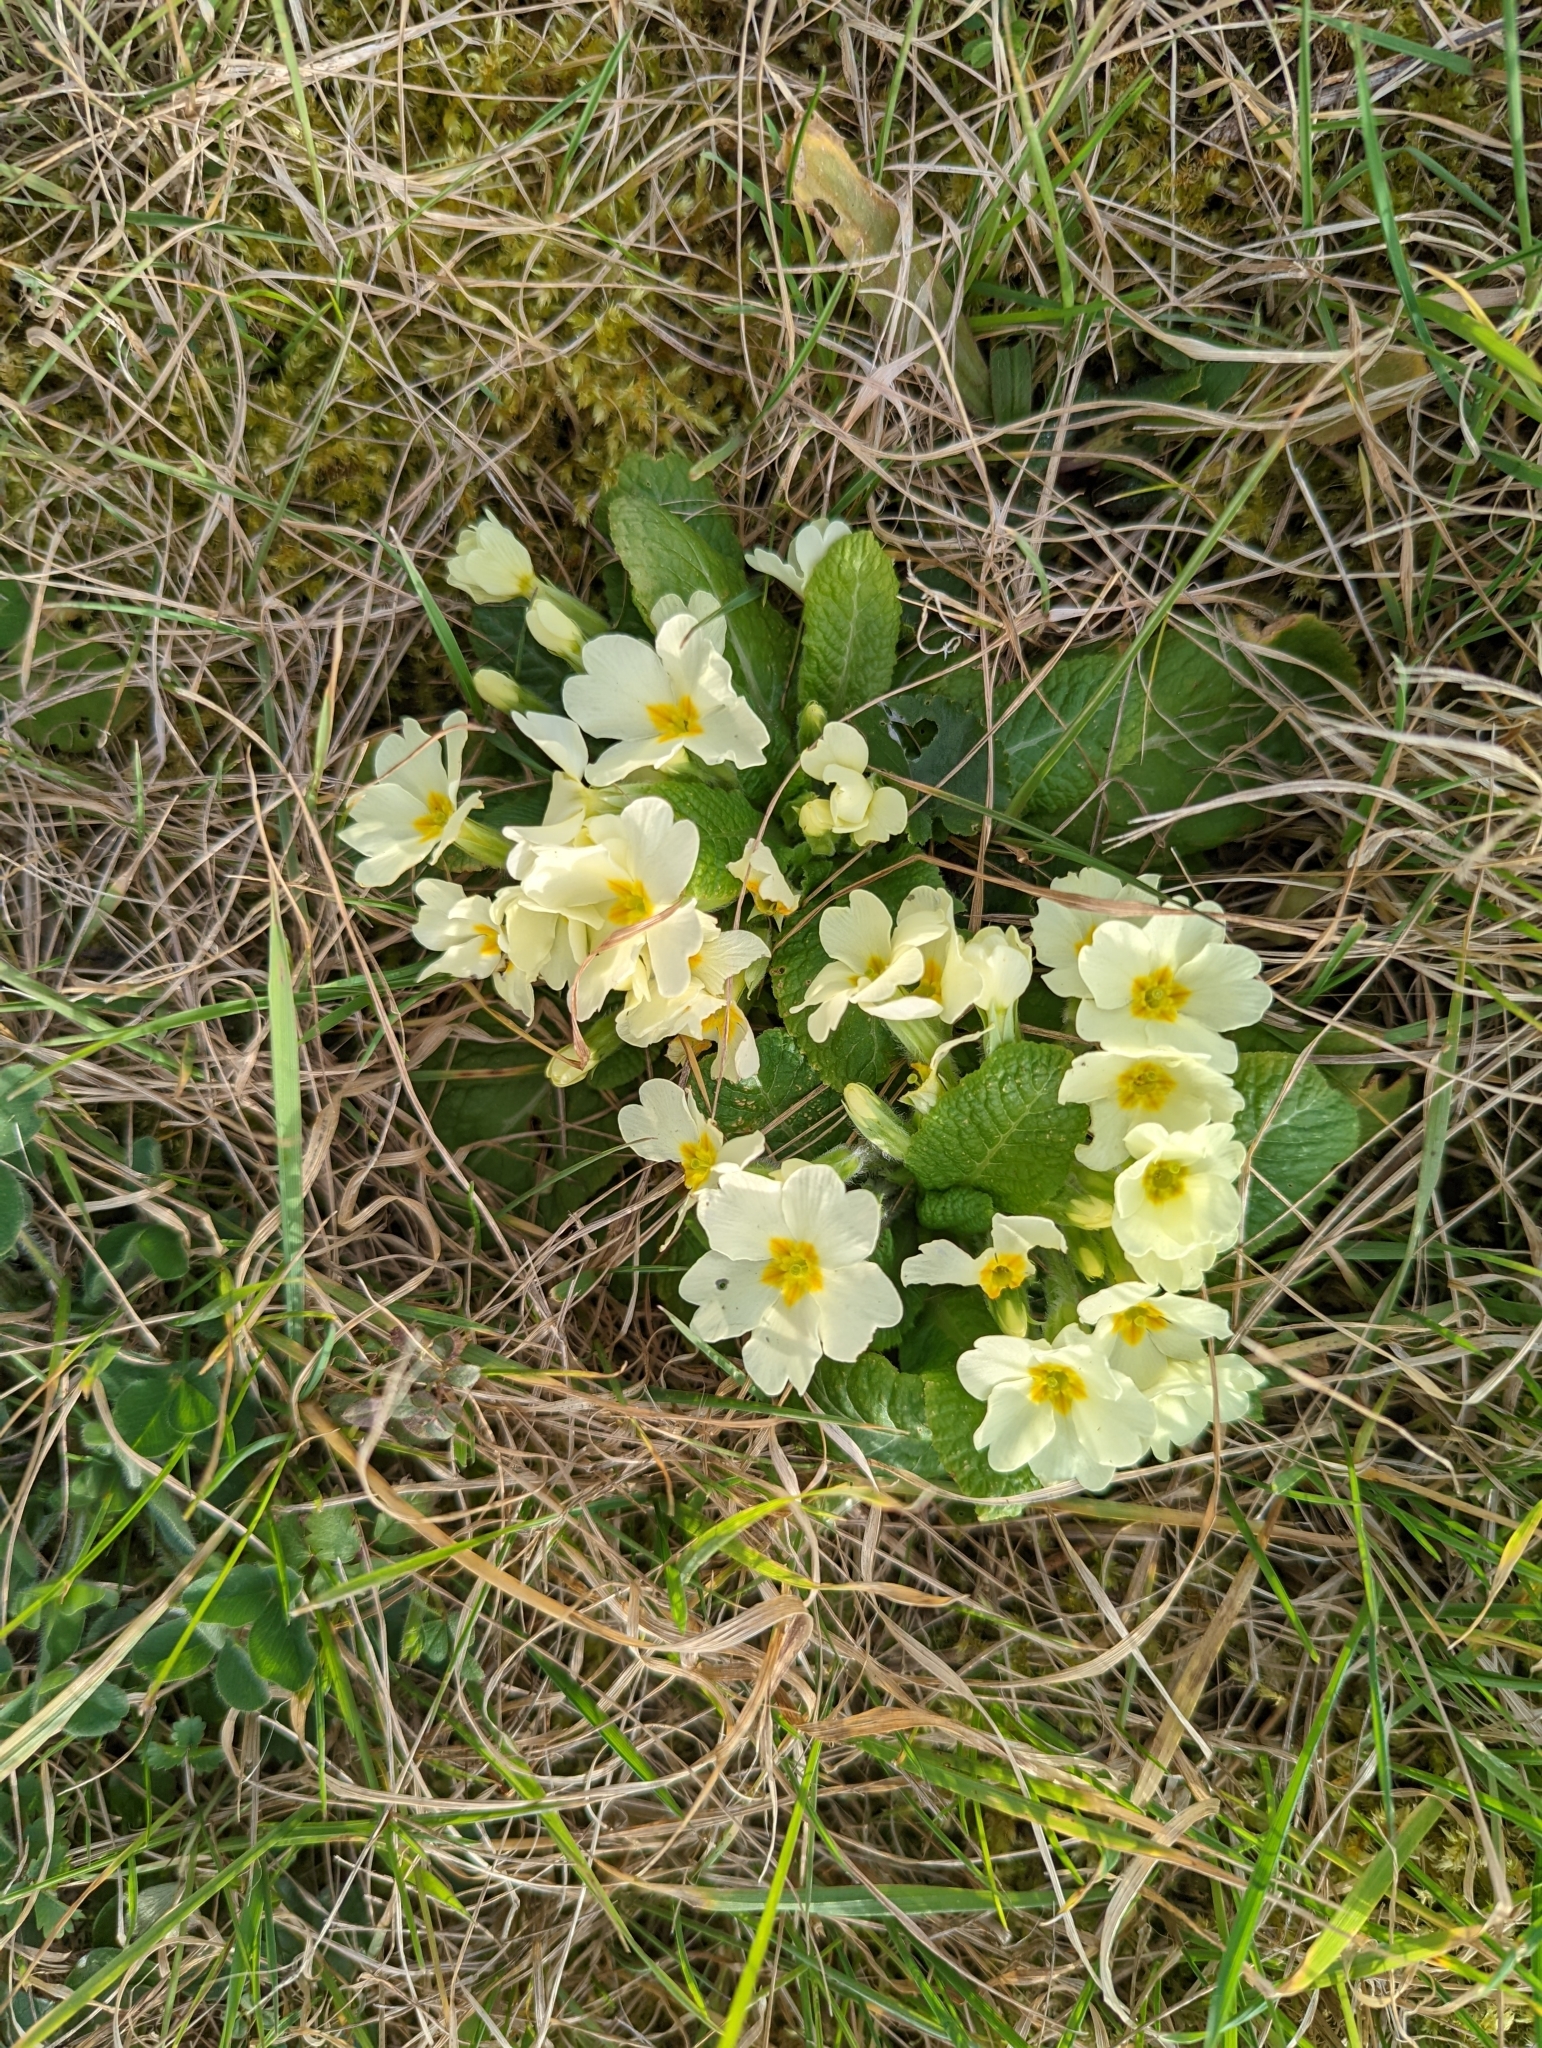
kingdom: Plantae
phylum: Tracheophyta
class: Magnoliopsida
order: Ericales
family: Primulaceae
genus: Primula
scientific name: Primula vulgaris
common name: Primrose
